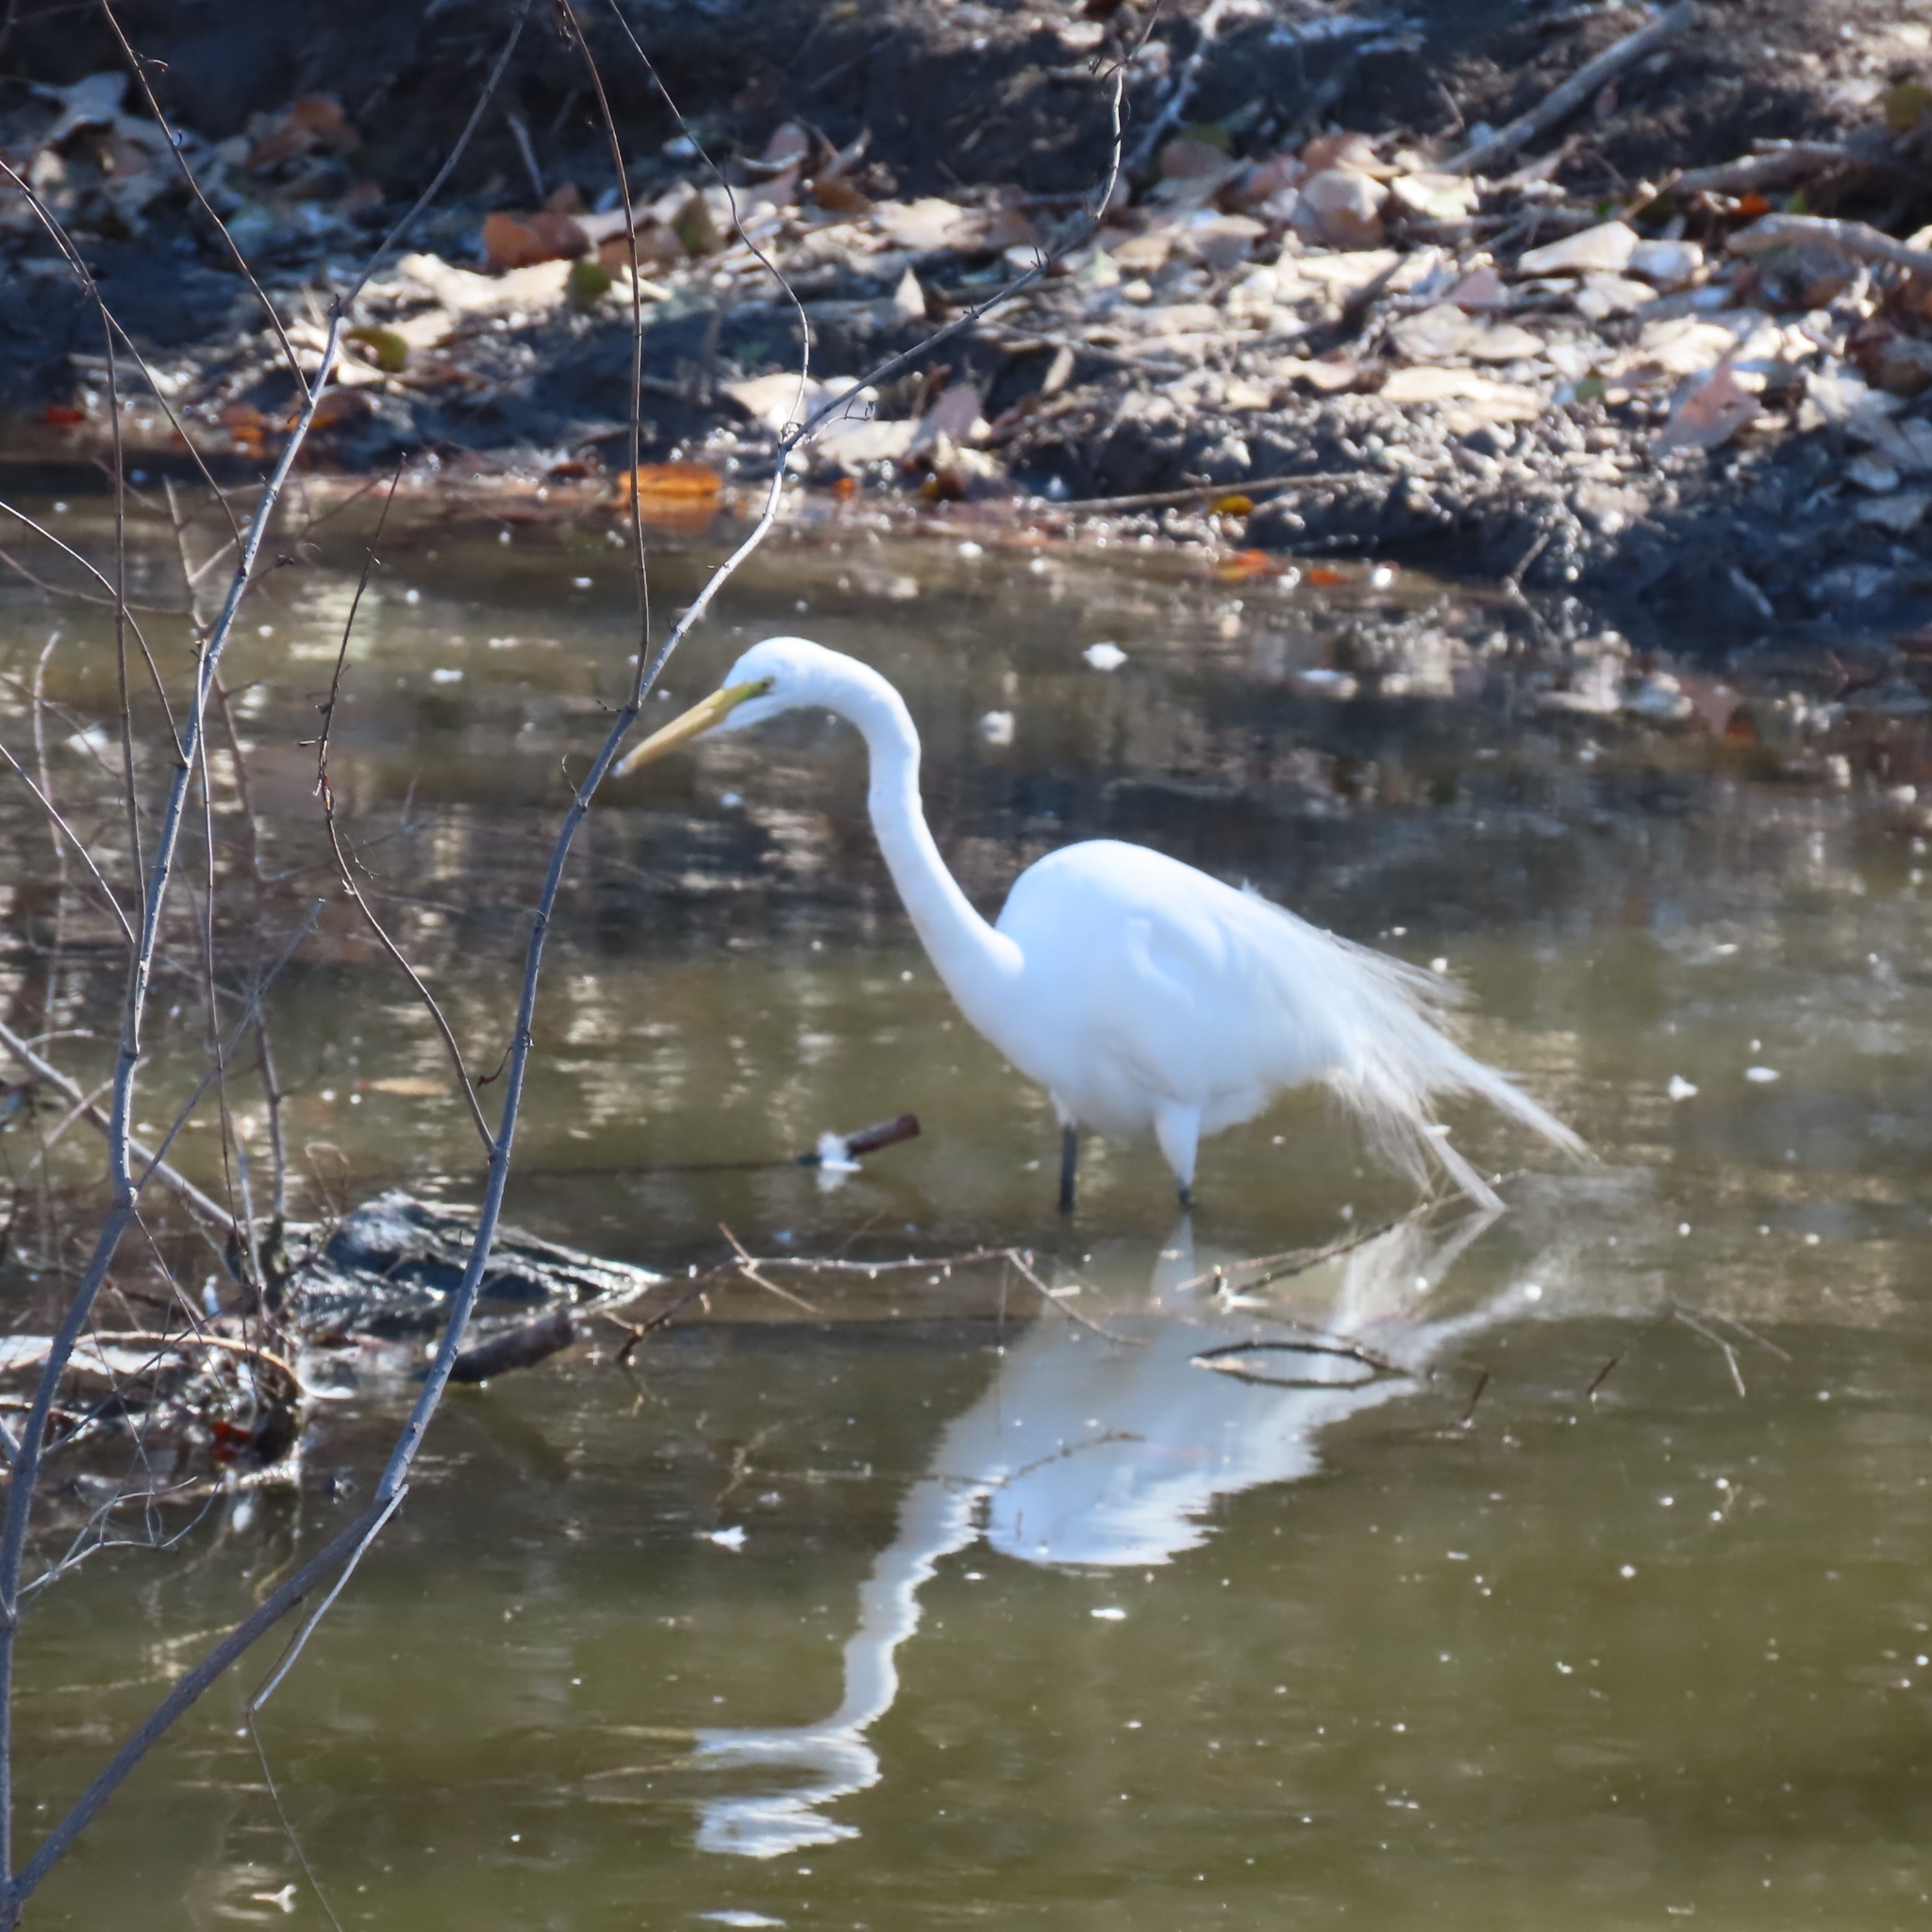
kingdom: Animalia
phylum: Chordata
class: Aves
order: Pelecaniformes
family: Ardeidae
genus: Ardea
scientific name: Ardea alba
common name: Great egret
